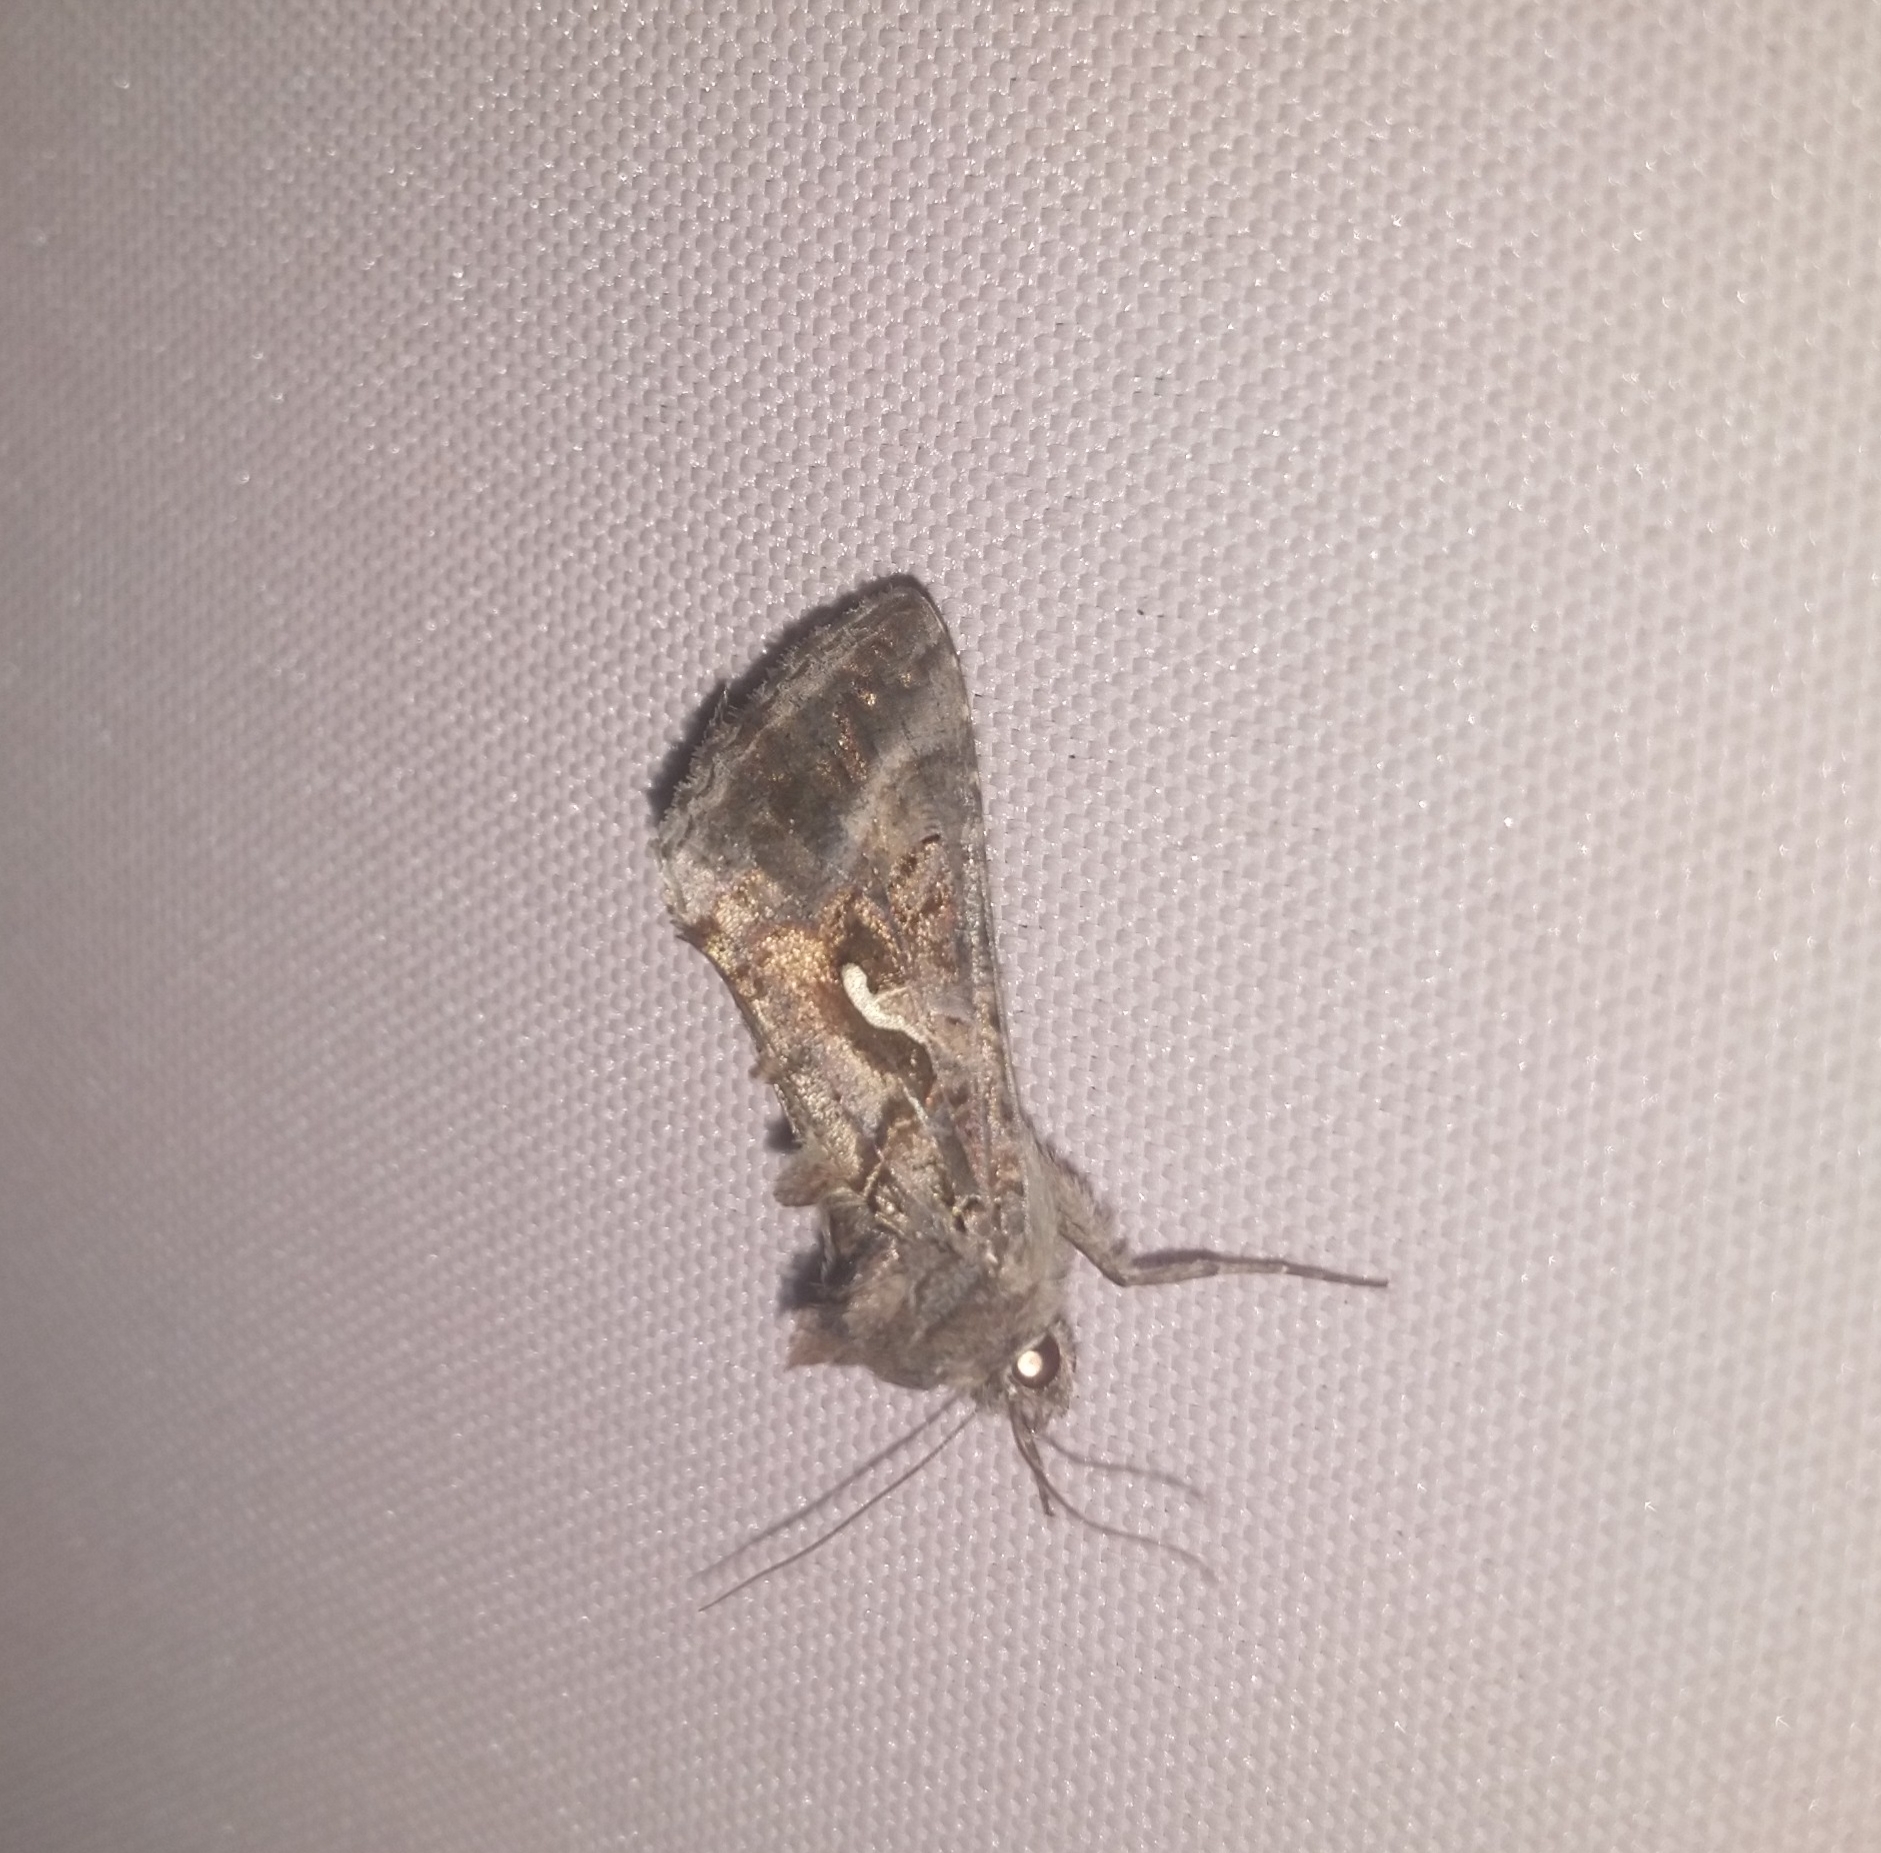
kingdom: Animalia
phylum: Arthropoda
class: Insecta
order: Lepidoptera
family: Noctuidae
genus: Autographa
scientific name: Autographa gamma
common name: Silver y
